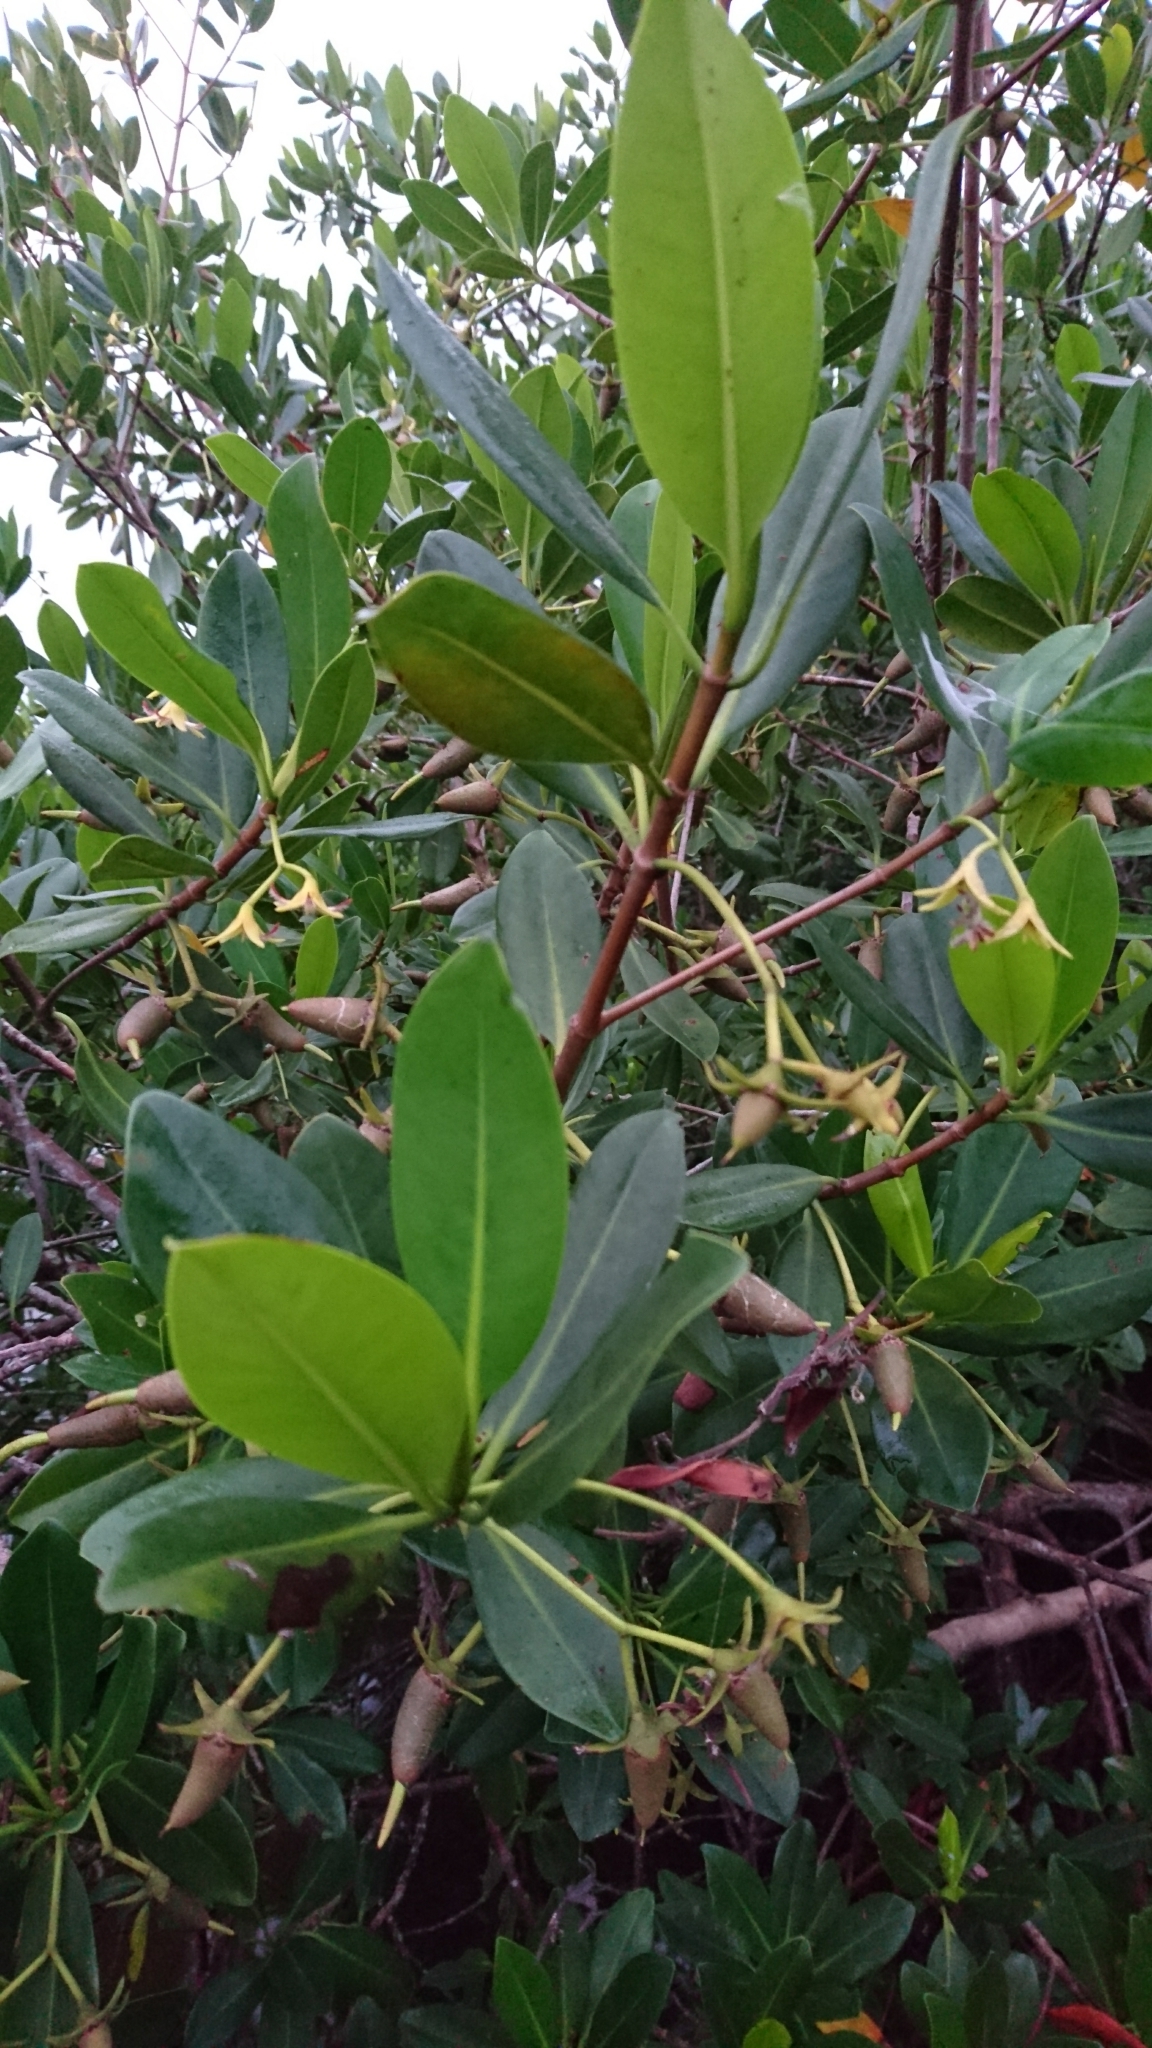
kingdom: Plantae
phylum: Tracheophyta
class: Magnoliopsida
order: Malpighiales
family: Rhizophoraceae
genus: Rhizophora
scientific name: Rhizophora mangle
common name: Red mangrove
